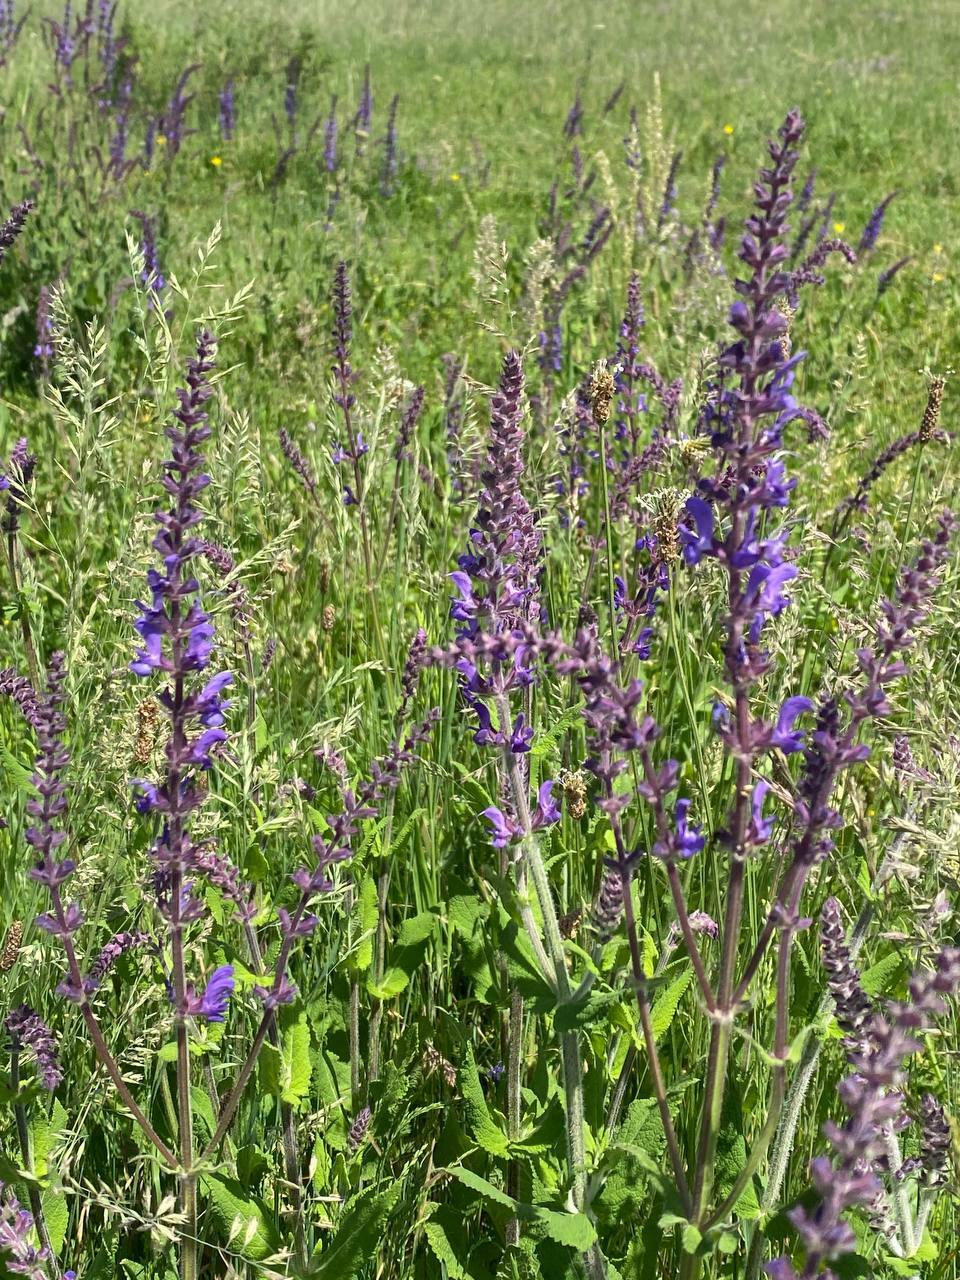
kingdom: Plantae
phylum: Tracheophyta
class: Magnoliopsida
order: Lamiales
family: Lamiaceae
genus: Salvia
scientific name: Salvia nemorosa
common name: Balkan clary
